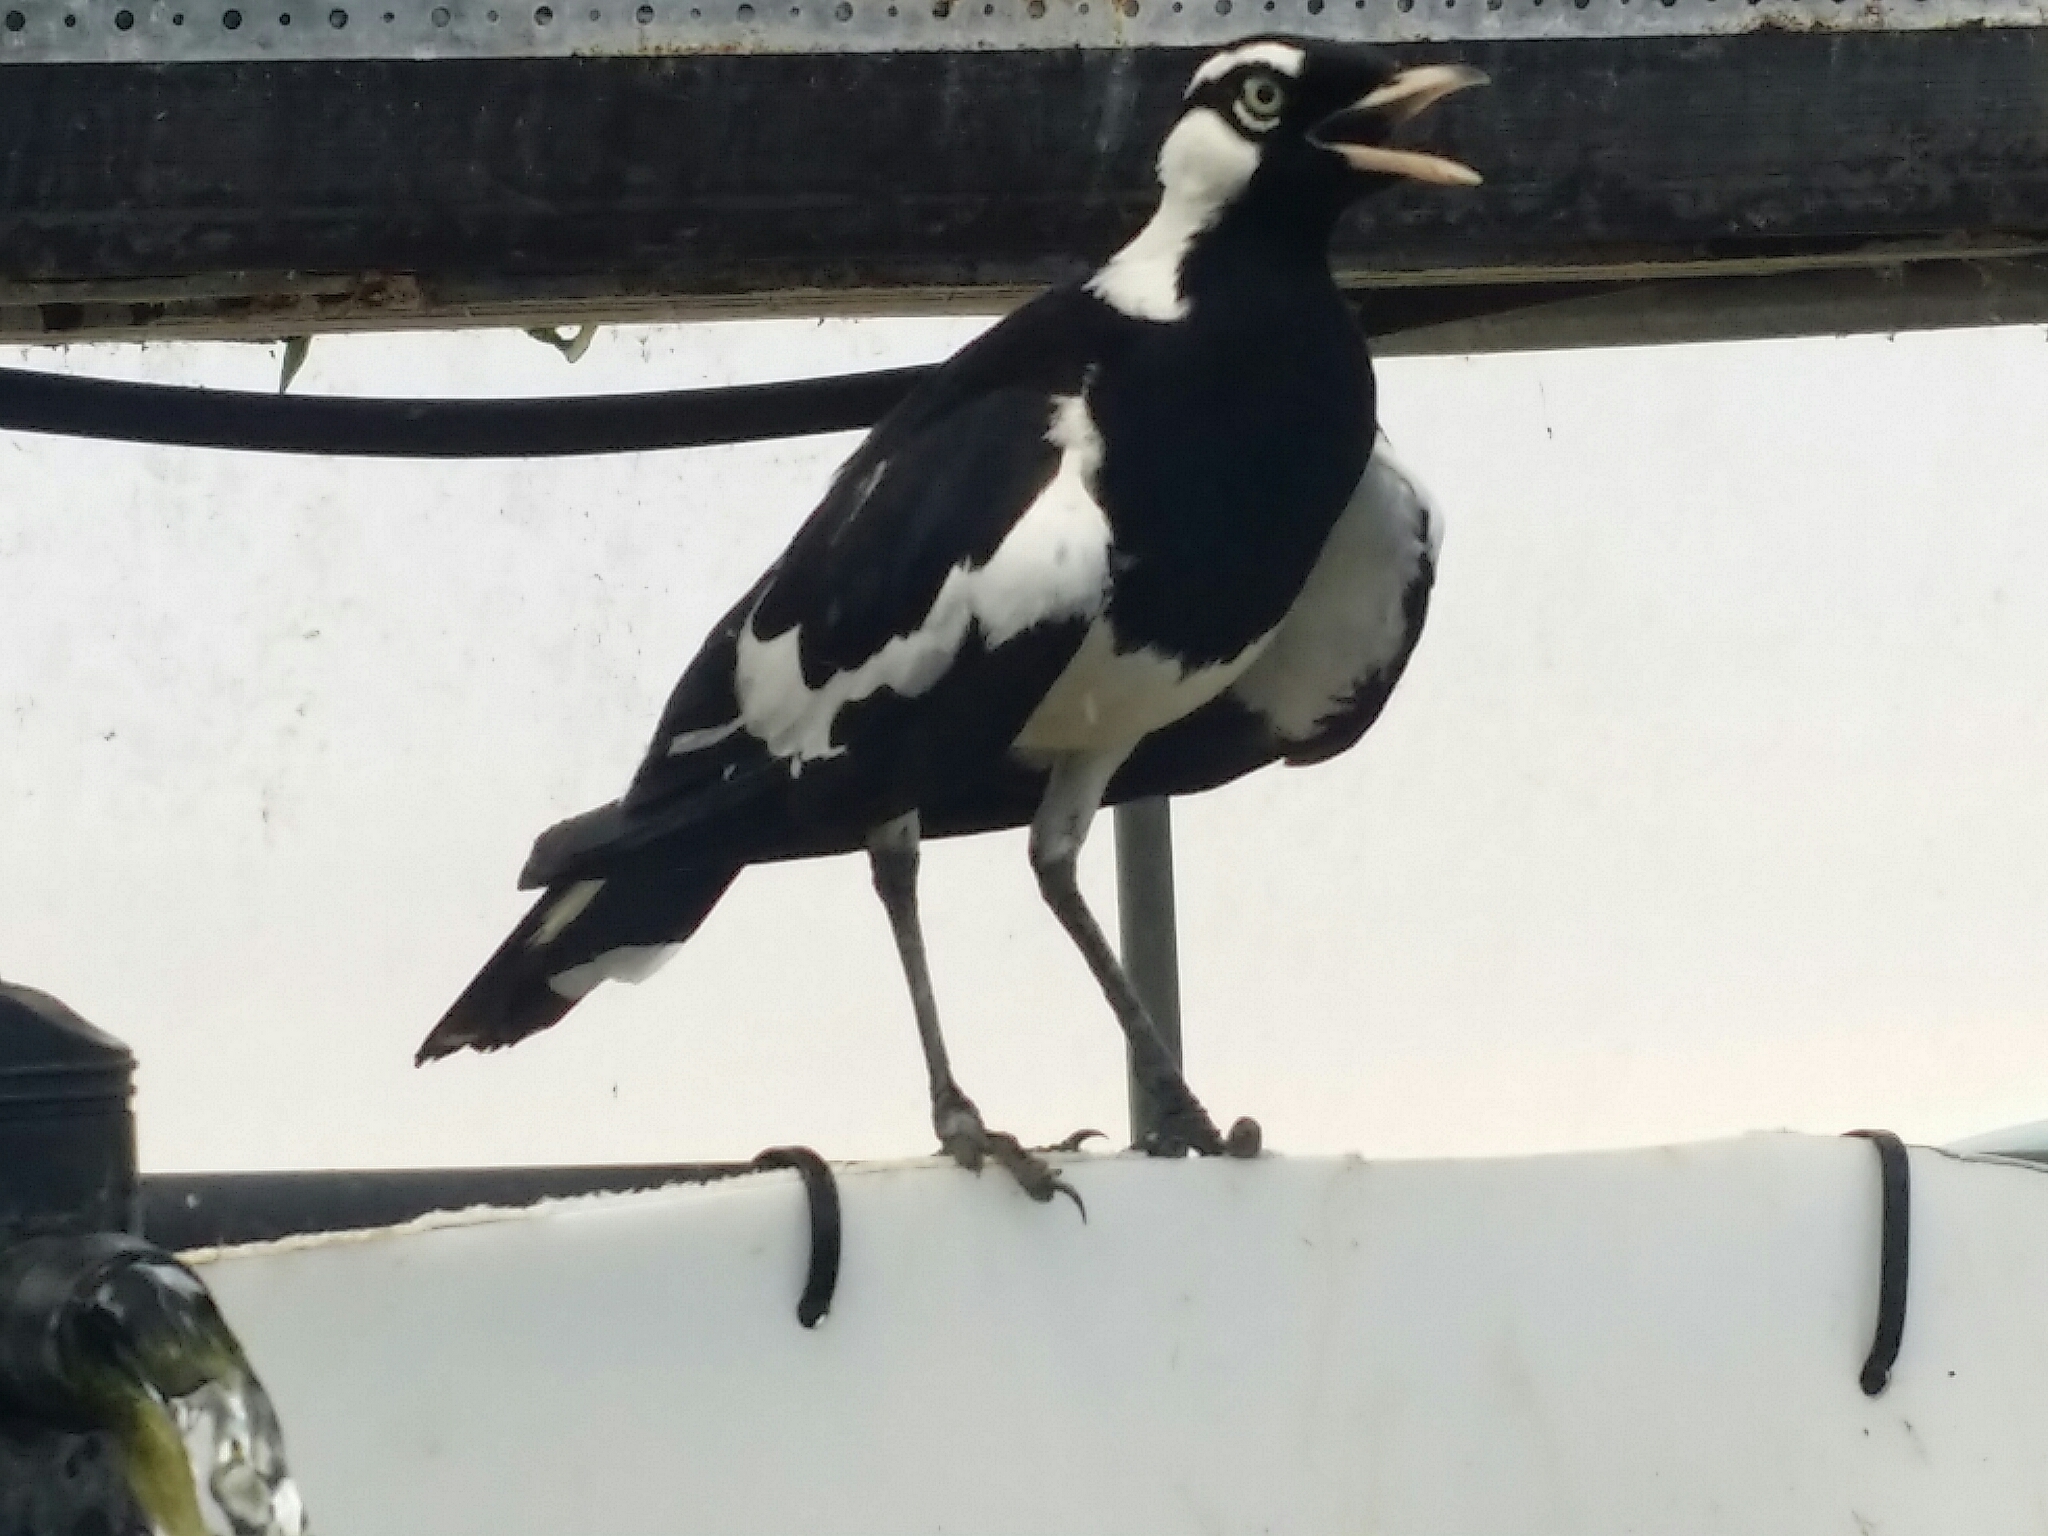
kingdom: Animalia
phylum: Chordata
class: Aves
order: Passeriformes
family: Monarchidae
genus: Grallina
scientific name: Grallina cyanoleuca
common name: Magpie-lark
